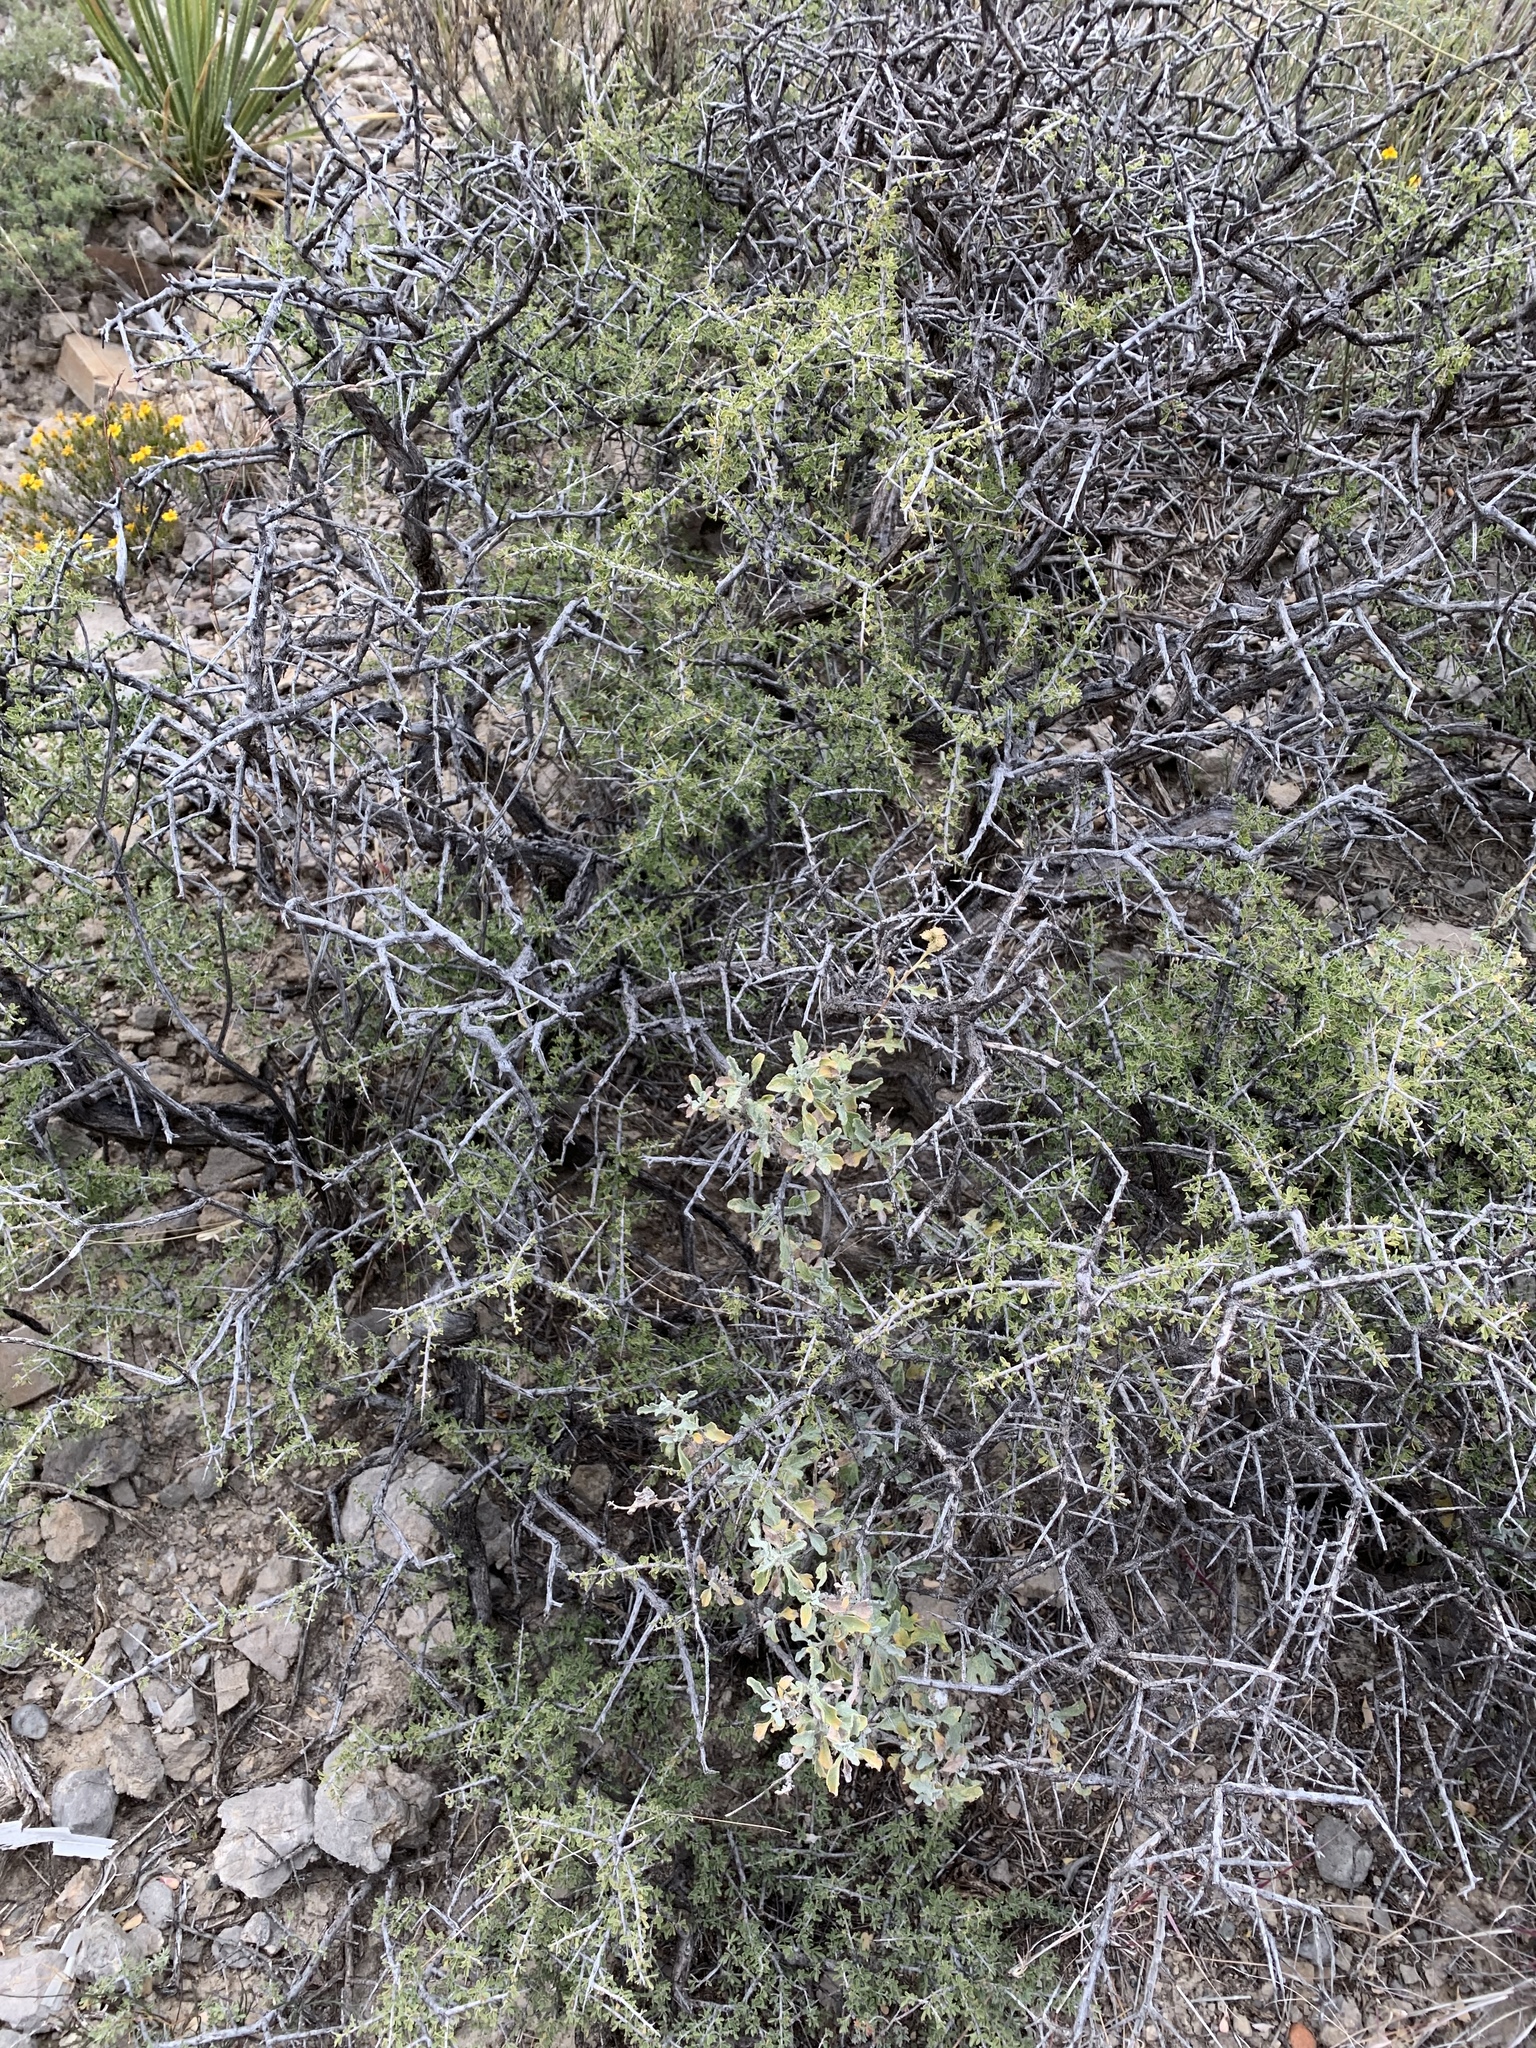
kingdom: Plantae
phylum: Tracheophyta
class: Magnoliopsida
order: Rosales
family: Rhamnaceae
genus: Condalia
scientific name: Condalia warnockii
